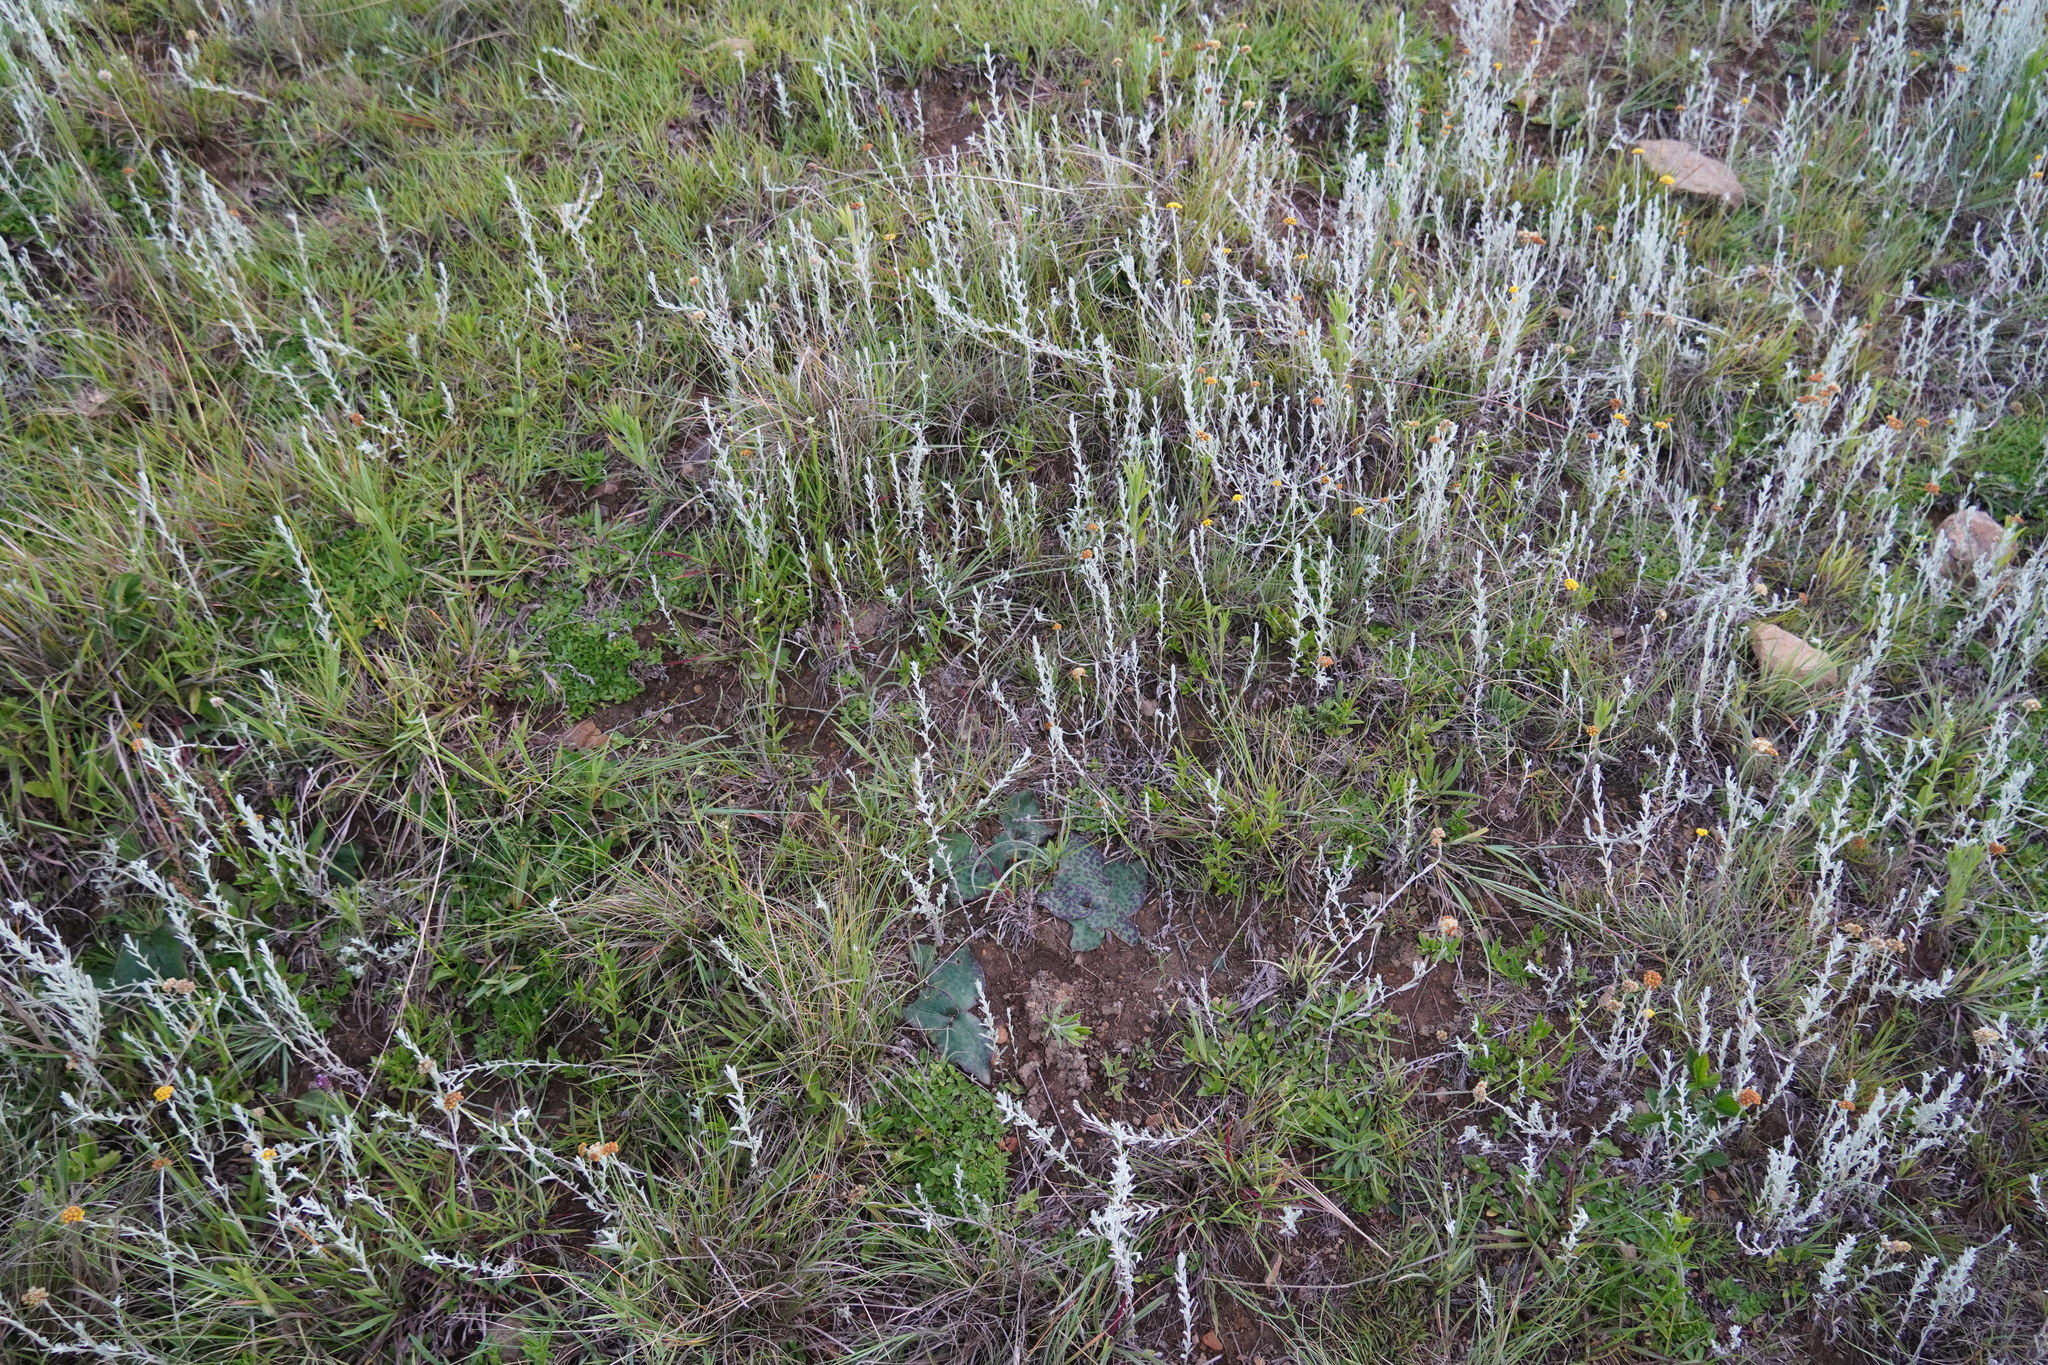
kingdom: Plantae
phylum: Tracheophyta
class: Magnoliopsida
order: Asterales
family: Asteraceae
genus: Helichrysum
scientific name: Helichrysum aureonitens
